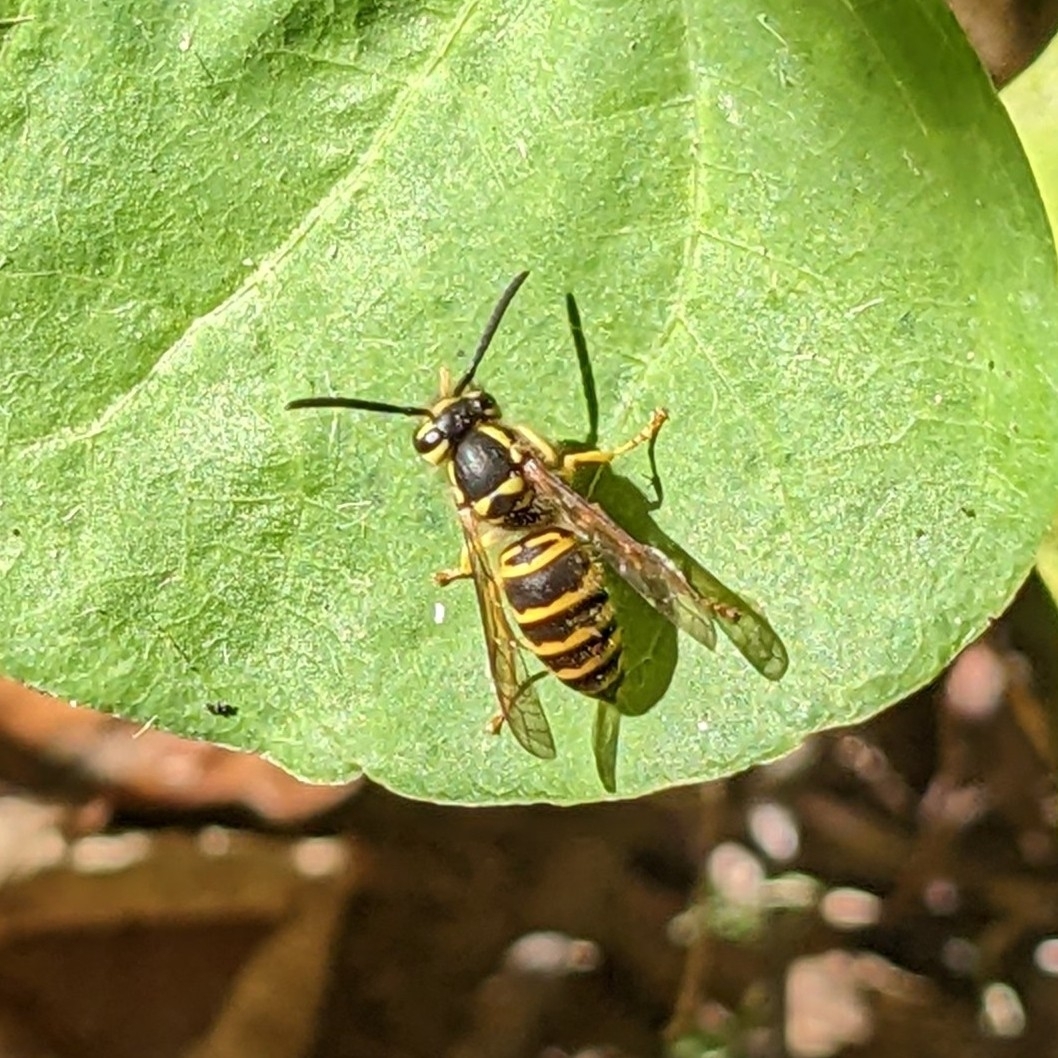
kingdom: Animalia
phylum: Arthropoda
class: Insecta
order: Hymenoptera
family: Vespidae
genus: Vespula
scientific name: Vespula maculifrons
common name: Eastern yellowjacket
